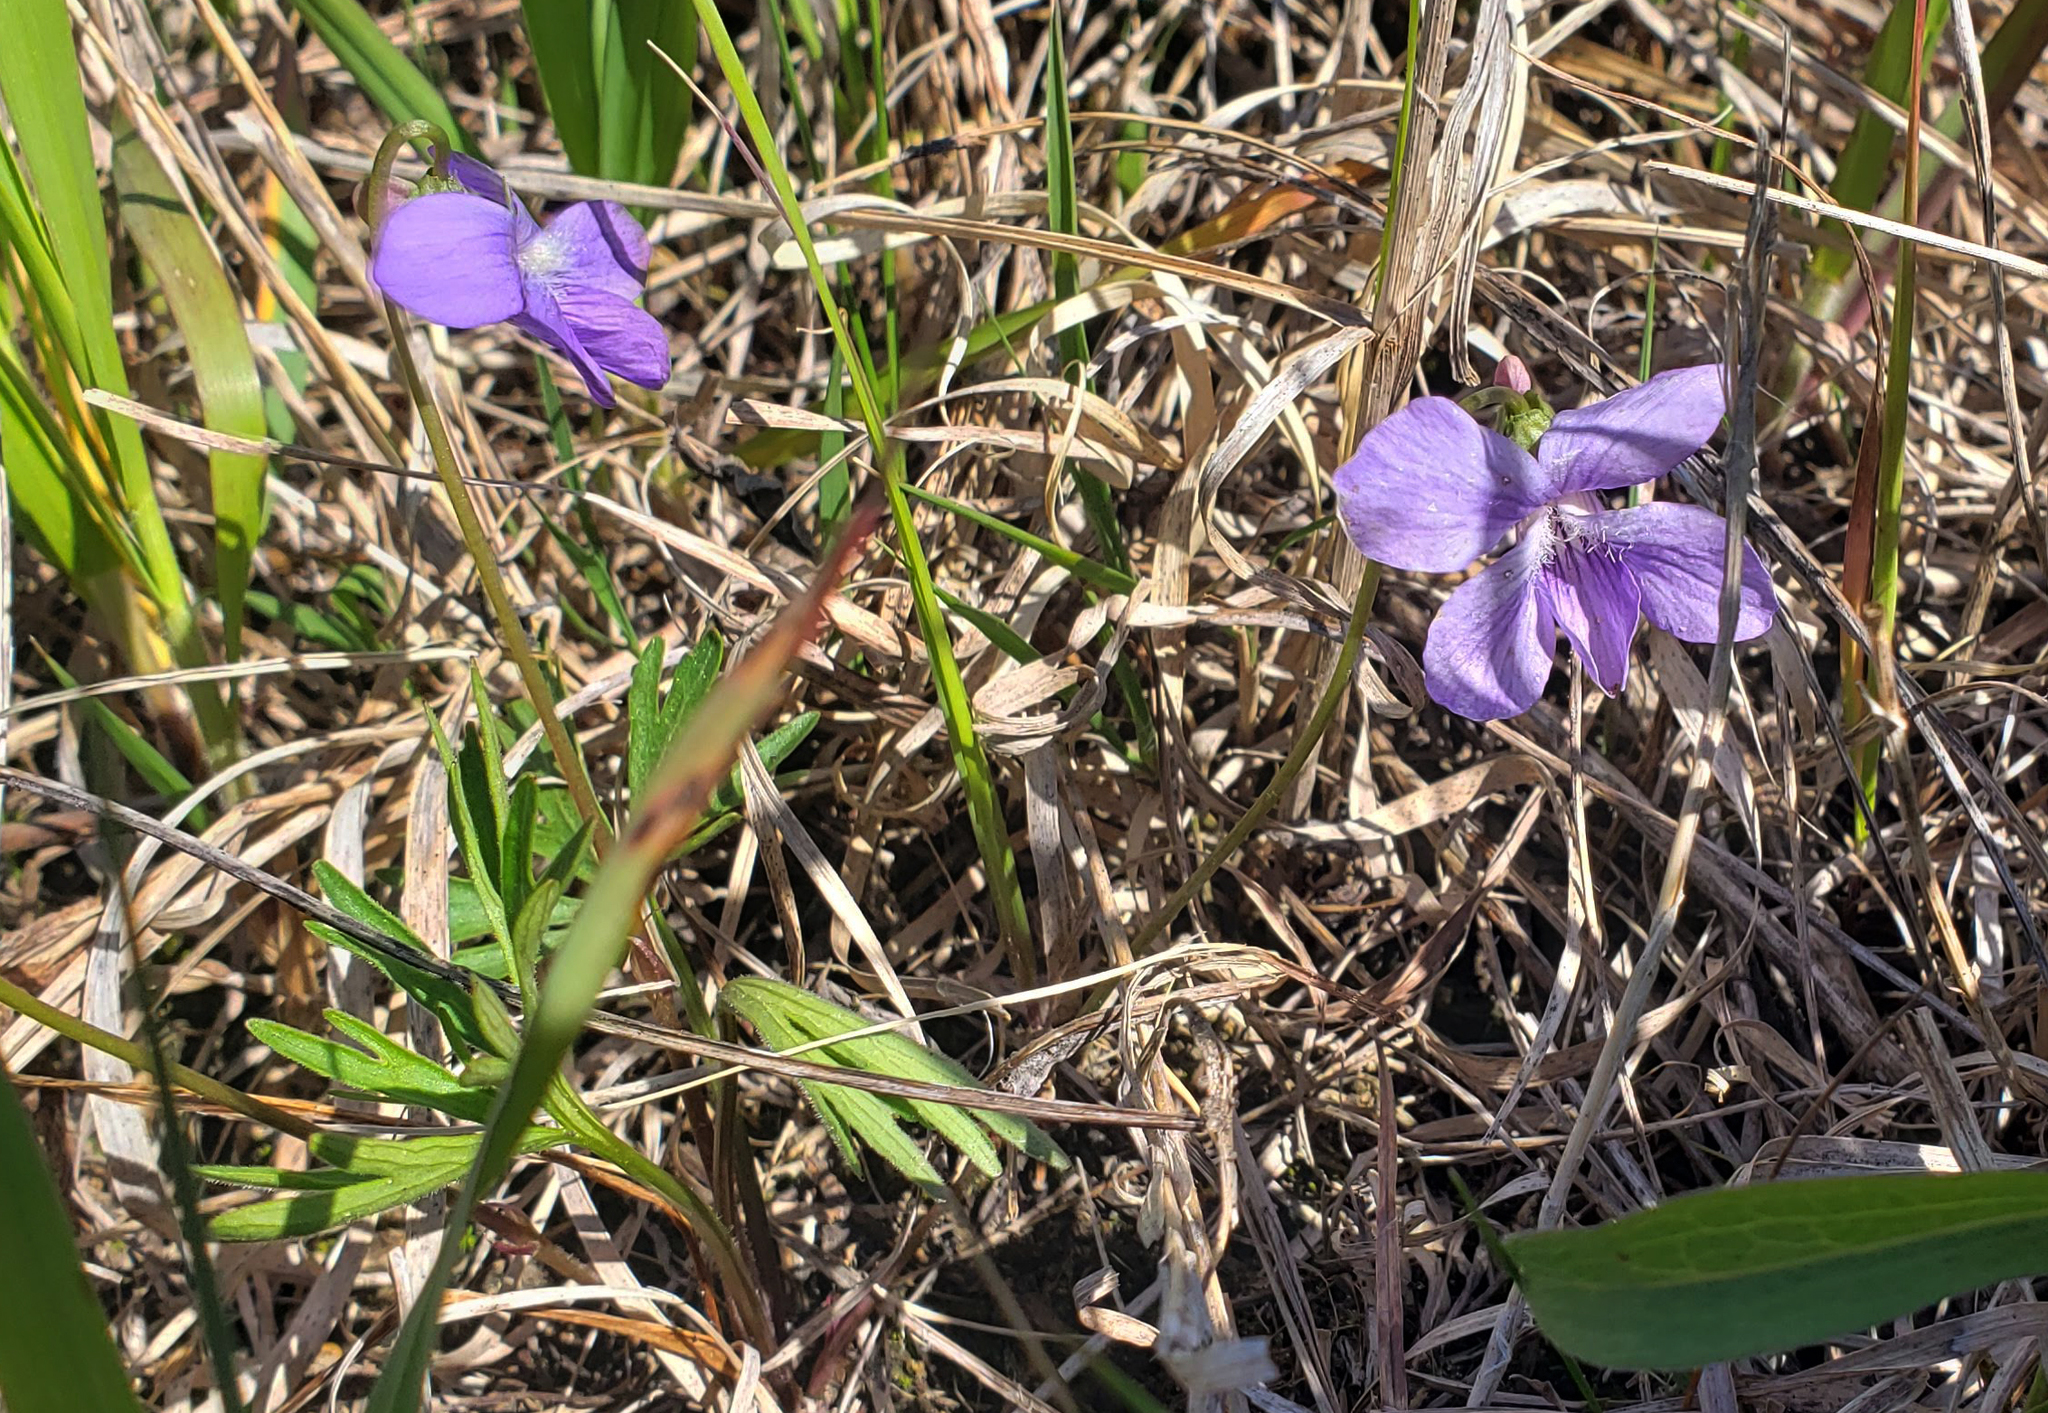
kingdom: Plantae
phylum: Tracheophyta
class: Magnoliopsida
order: Malpighiales
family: Violaceae
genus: Viola
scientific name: Viola pedatifida
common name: Prairie violet
